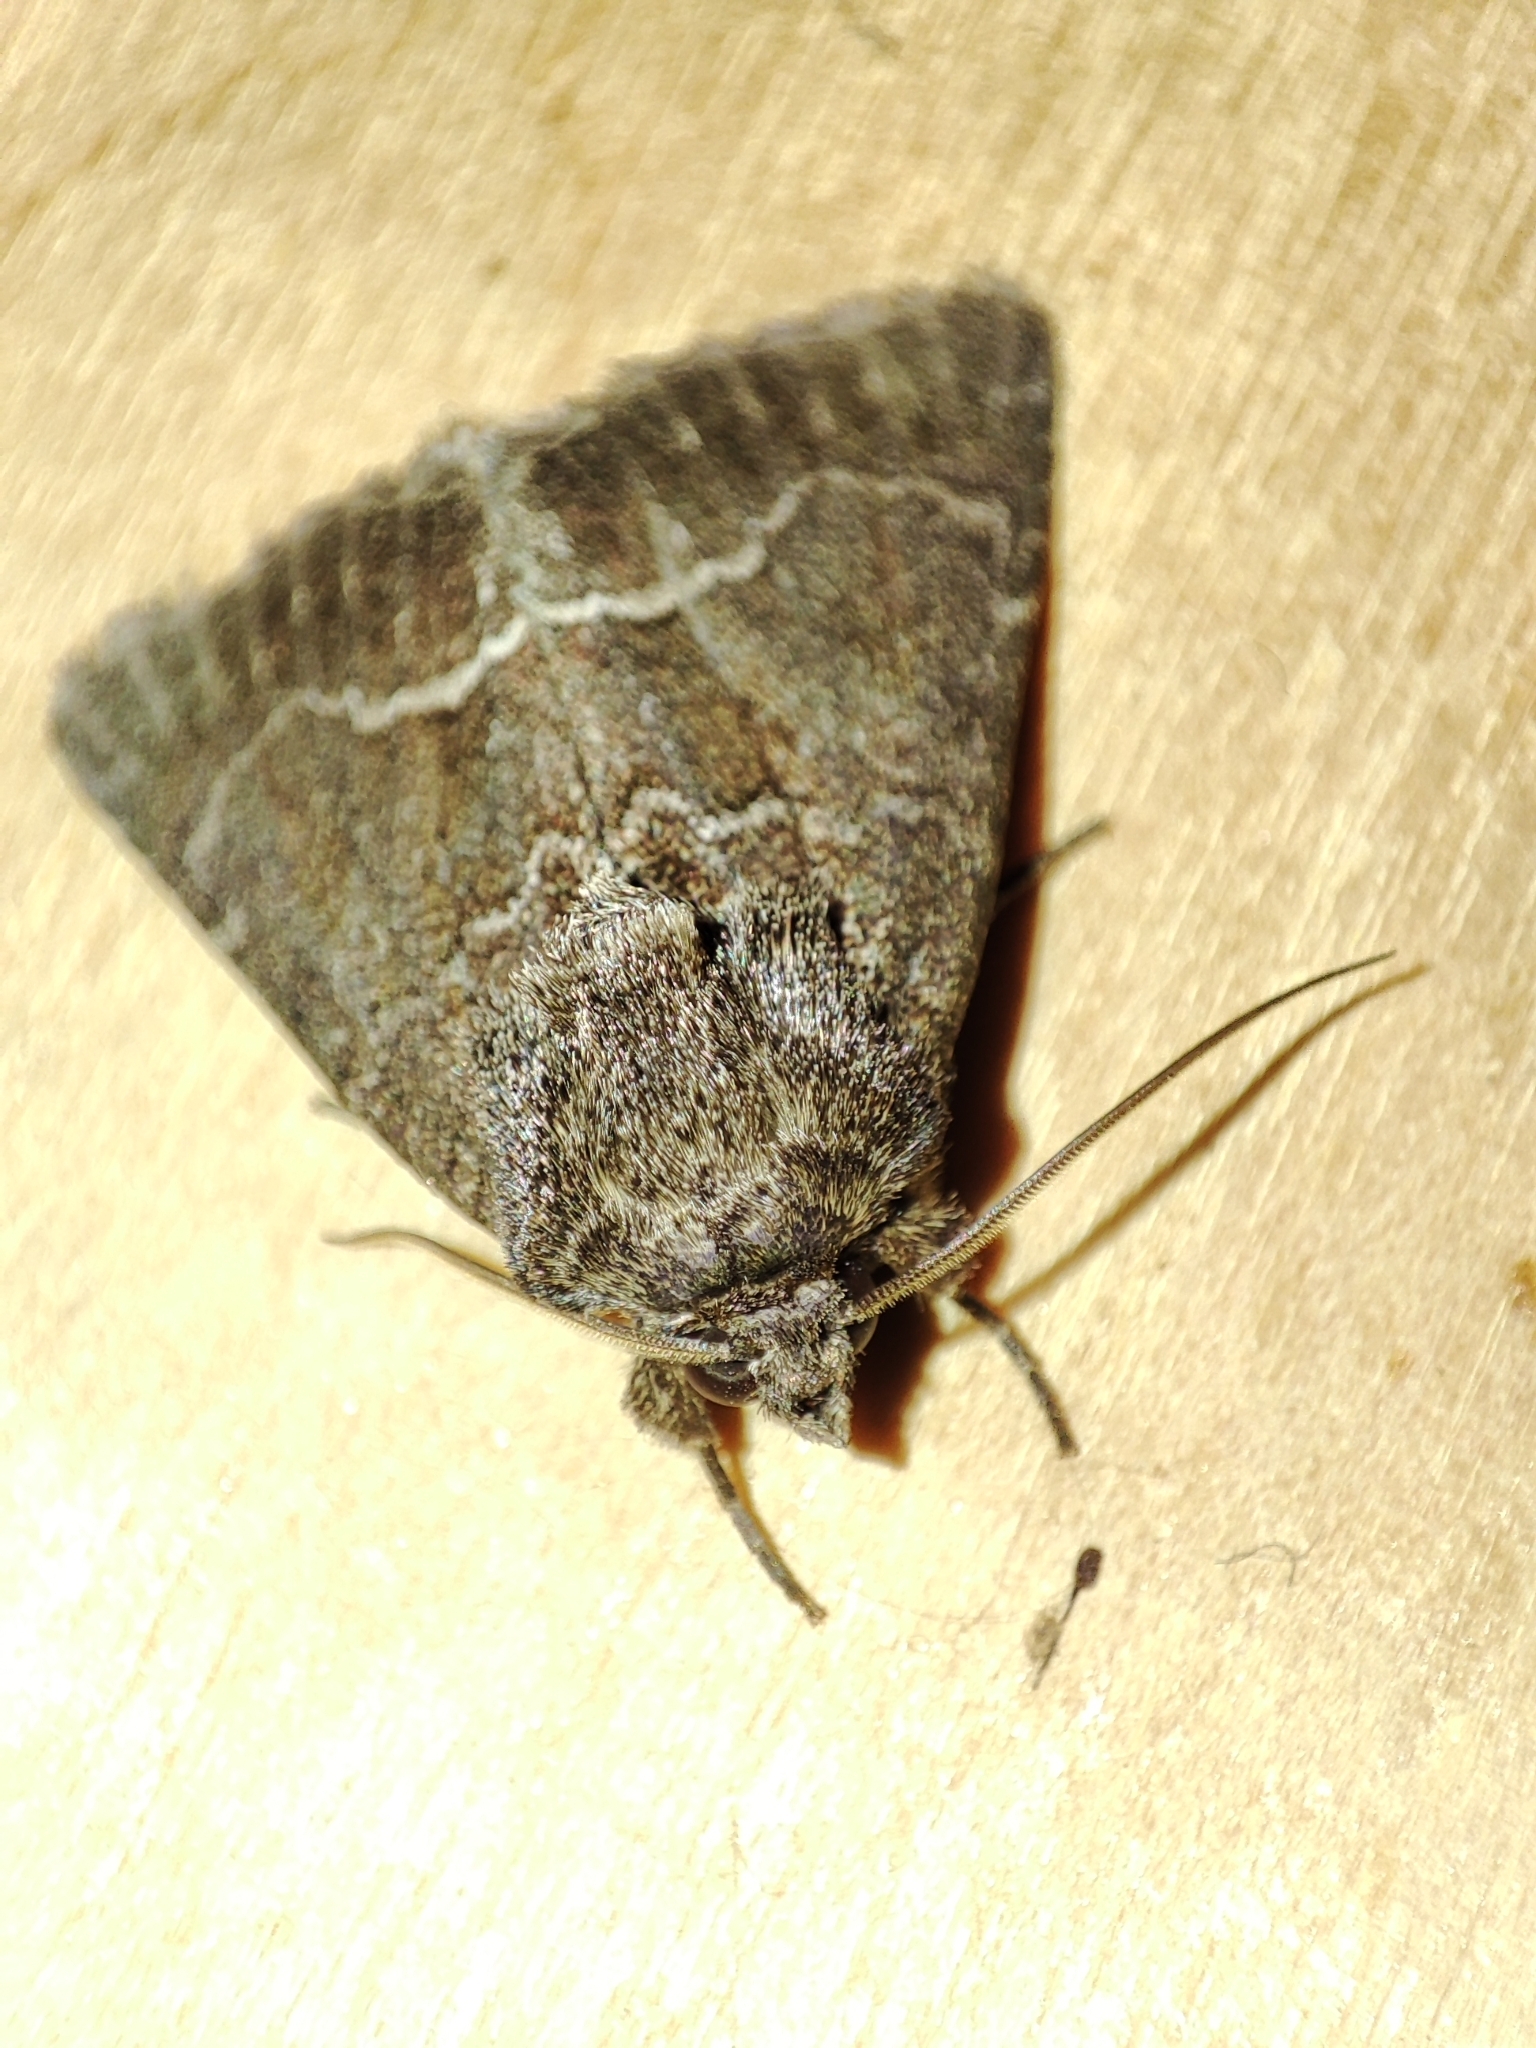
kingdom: Animalia
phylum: Arthropoda
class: Insecta
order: Lepidoptera
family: Noctuidae
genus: Thalpophila
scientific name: Thalpophila matura
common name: Straw underwing
